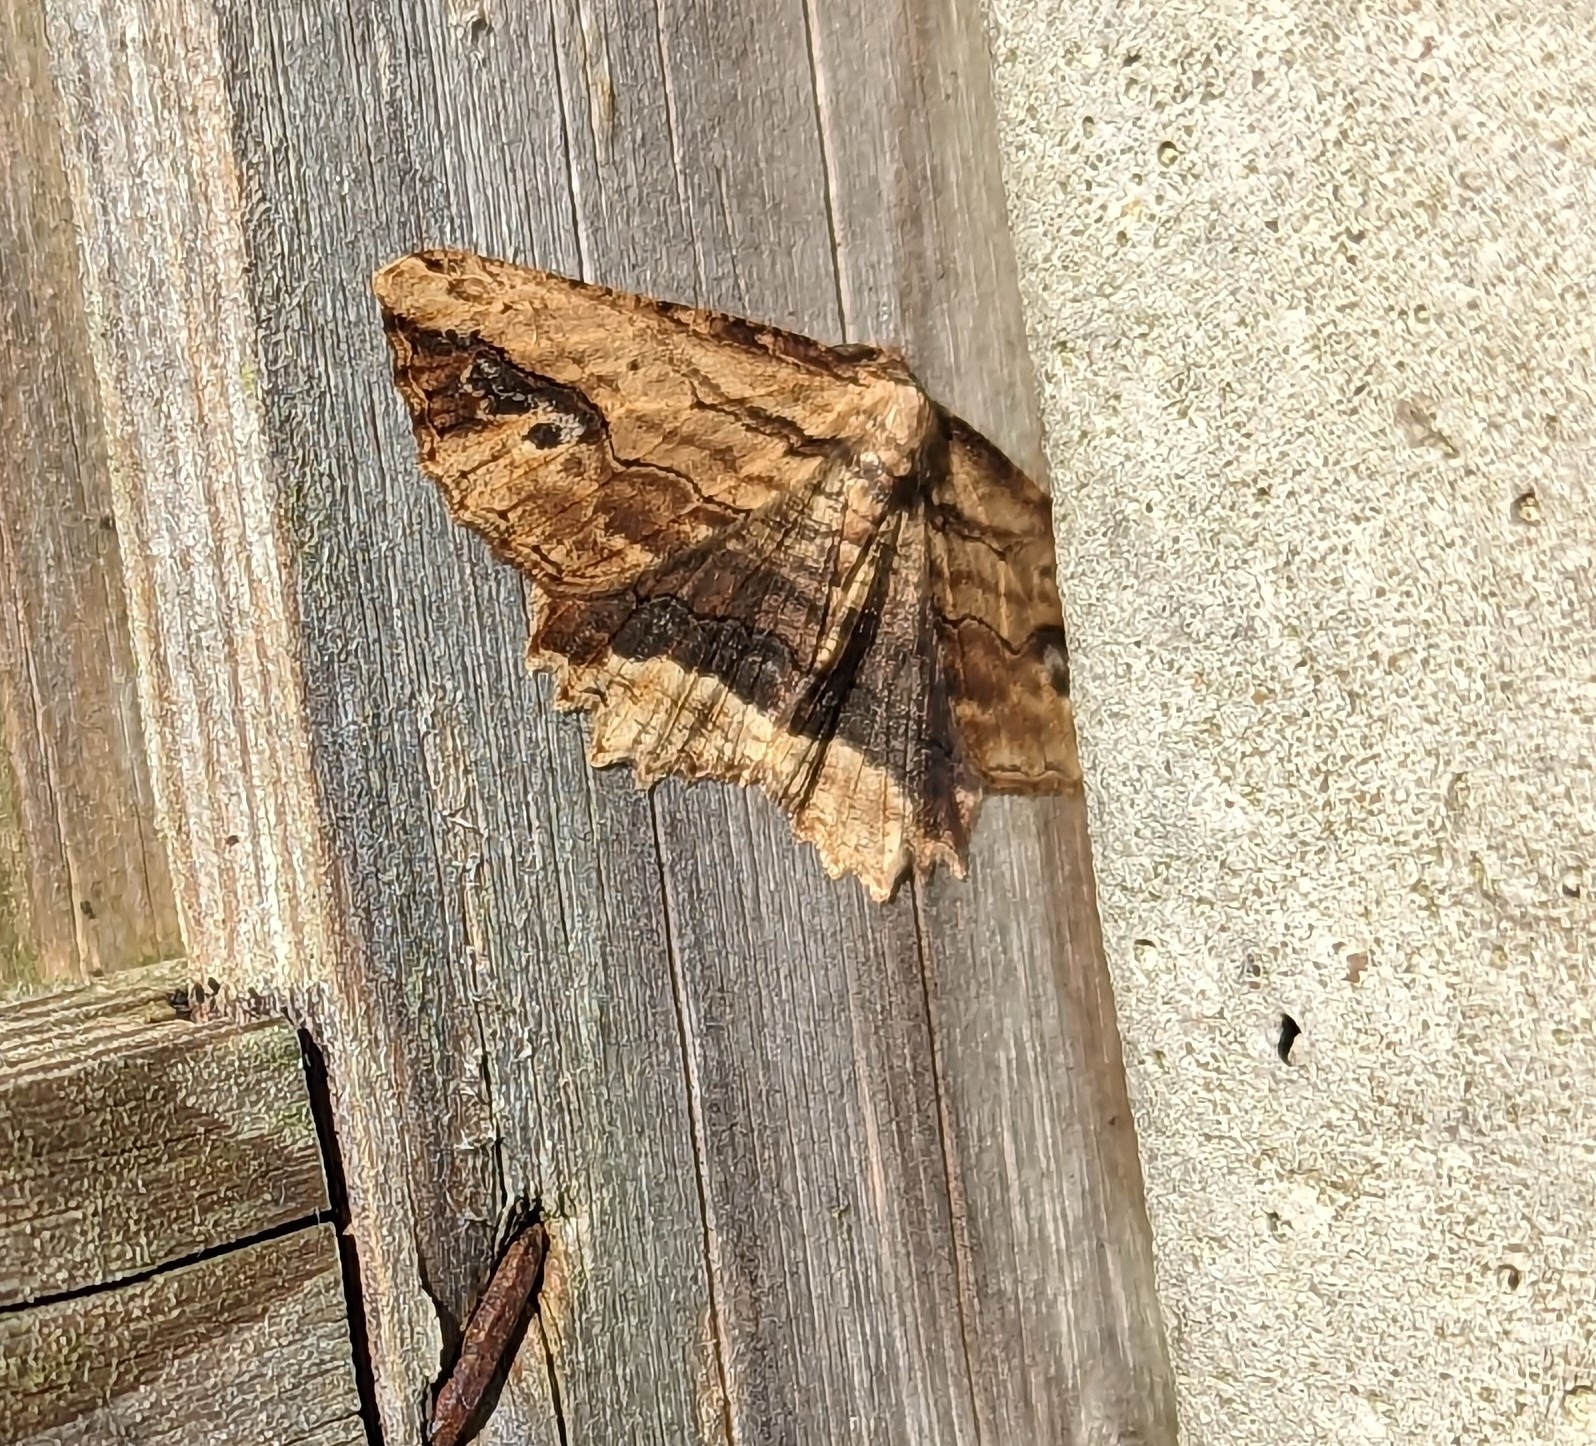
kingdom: Animalia
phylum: Arthropoda
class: Insecta
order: Lepidoptera
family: Geometridae
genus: Menophra
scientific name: Menophra abruptaria
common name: Waved umber
